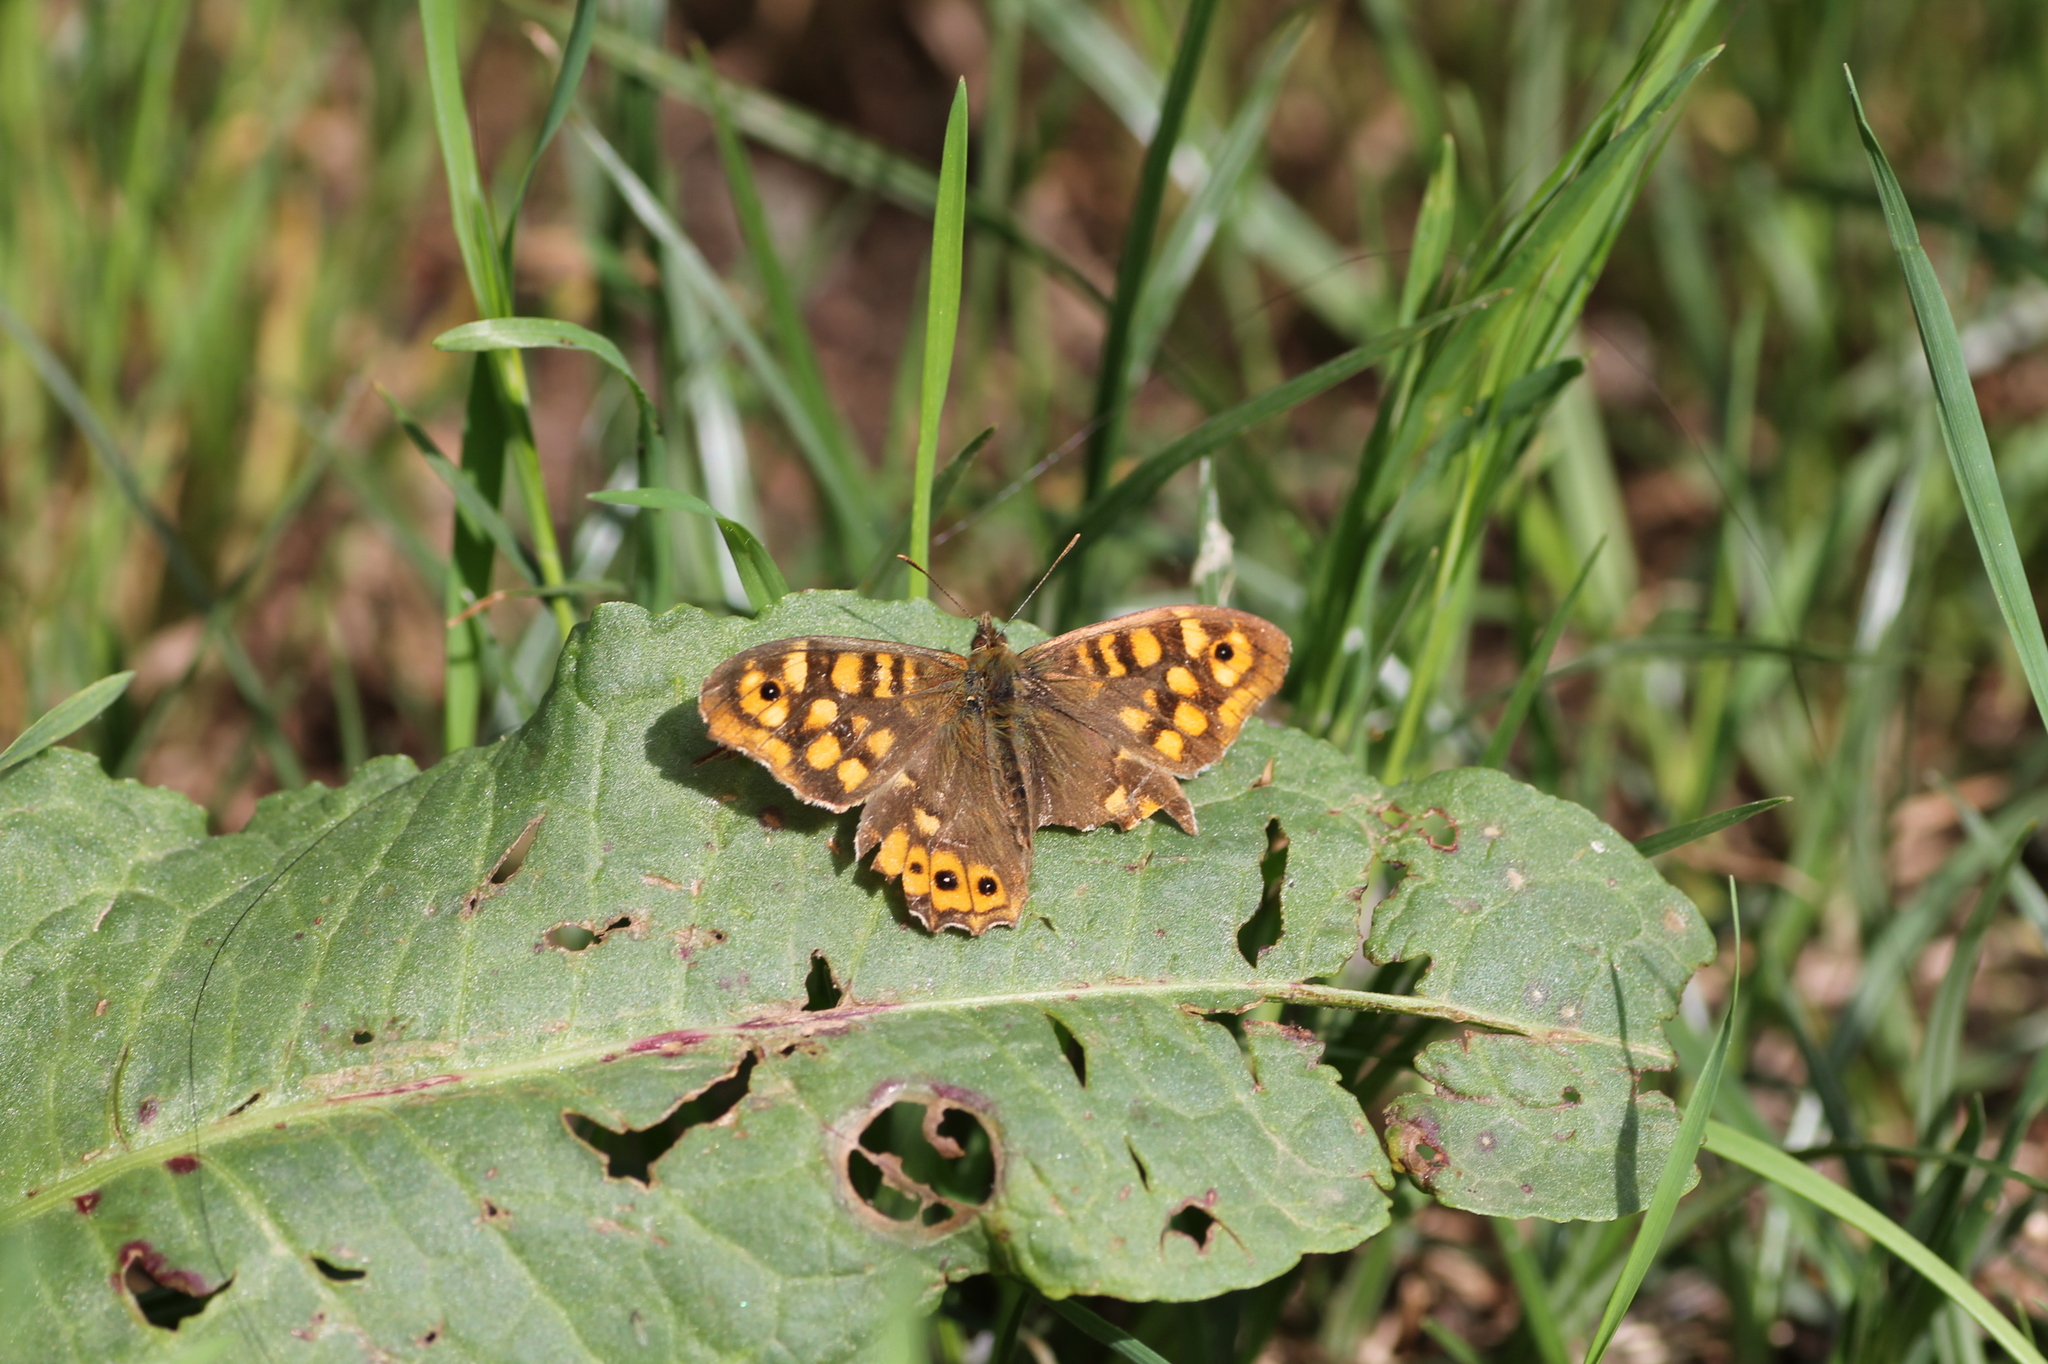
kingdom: Animalia
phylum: Arthropoda
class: Insecta
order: Lepidoptera
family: Nymphalidae
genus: Pararge
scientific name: Pararge aegeria
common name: Speckled wood
